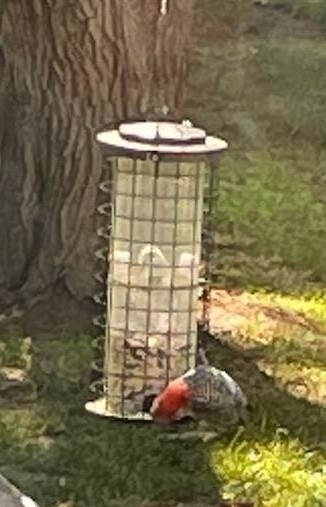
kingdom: Animalia
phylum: Chordata
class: Aves
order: Piciformes
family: Picidae
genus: Melanerpes
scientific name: Melanerpes carolinus
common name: Red-bellied woodpecker
